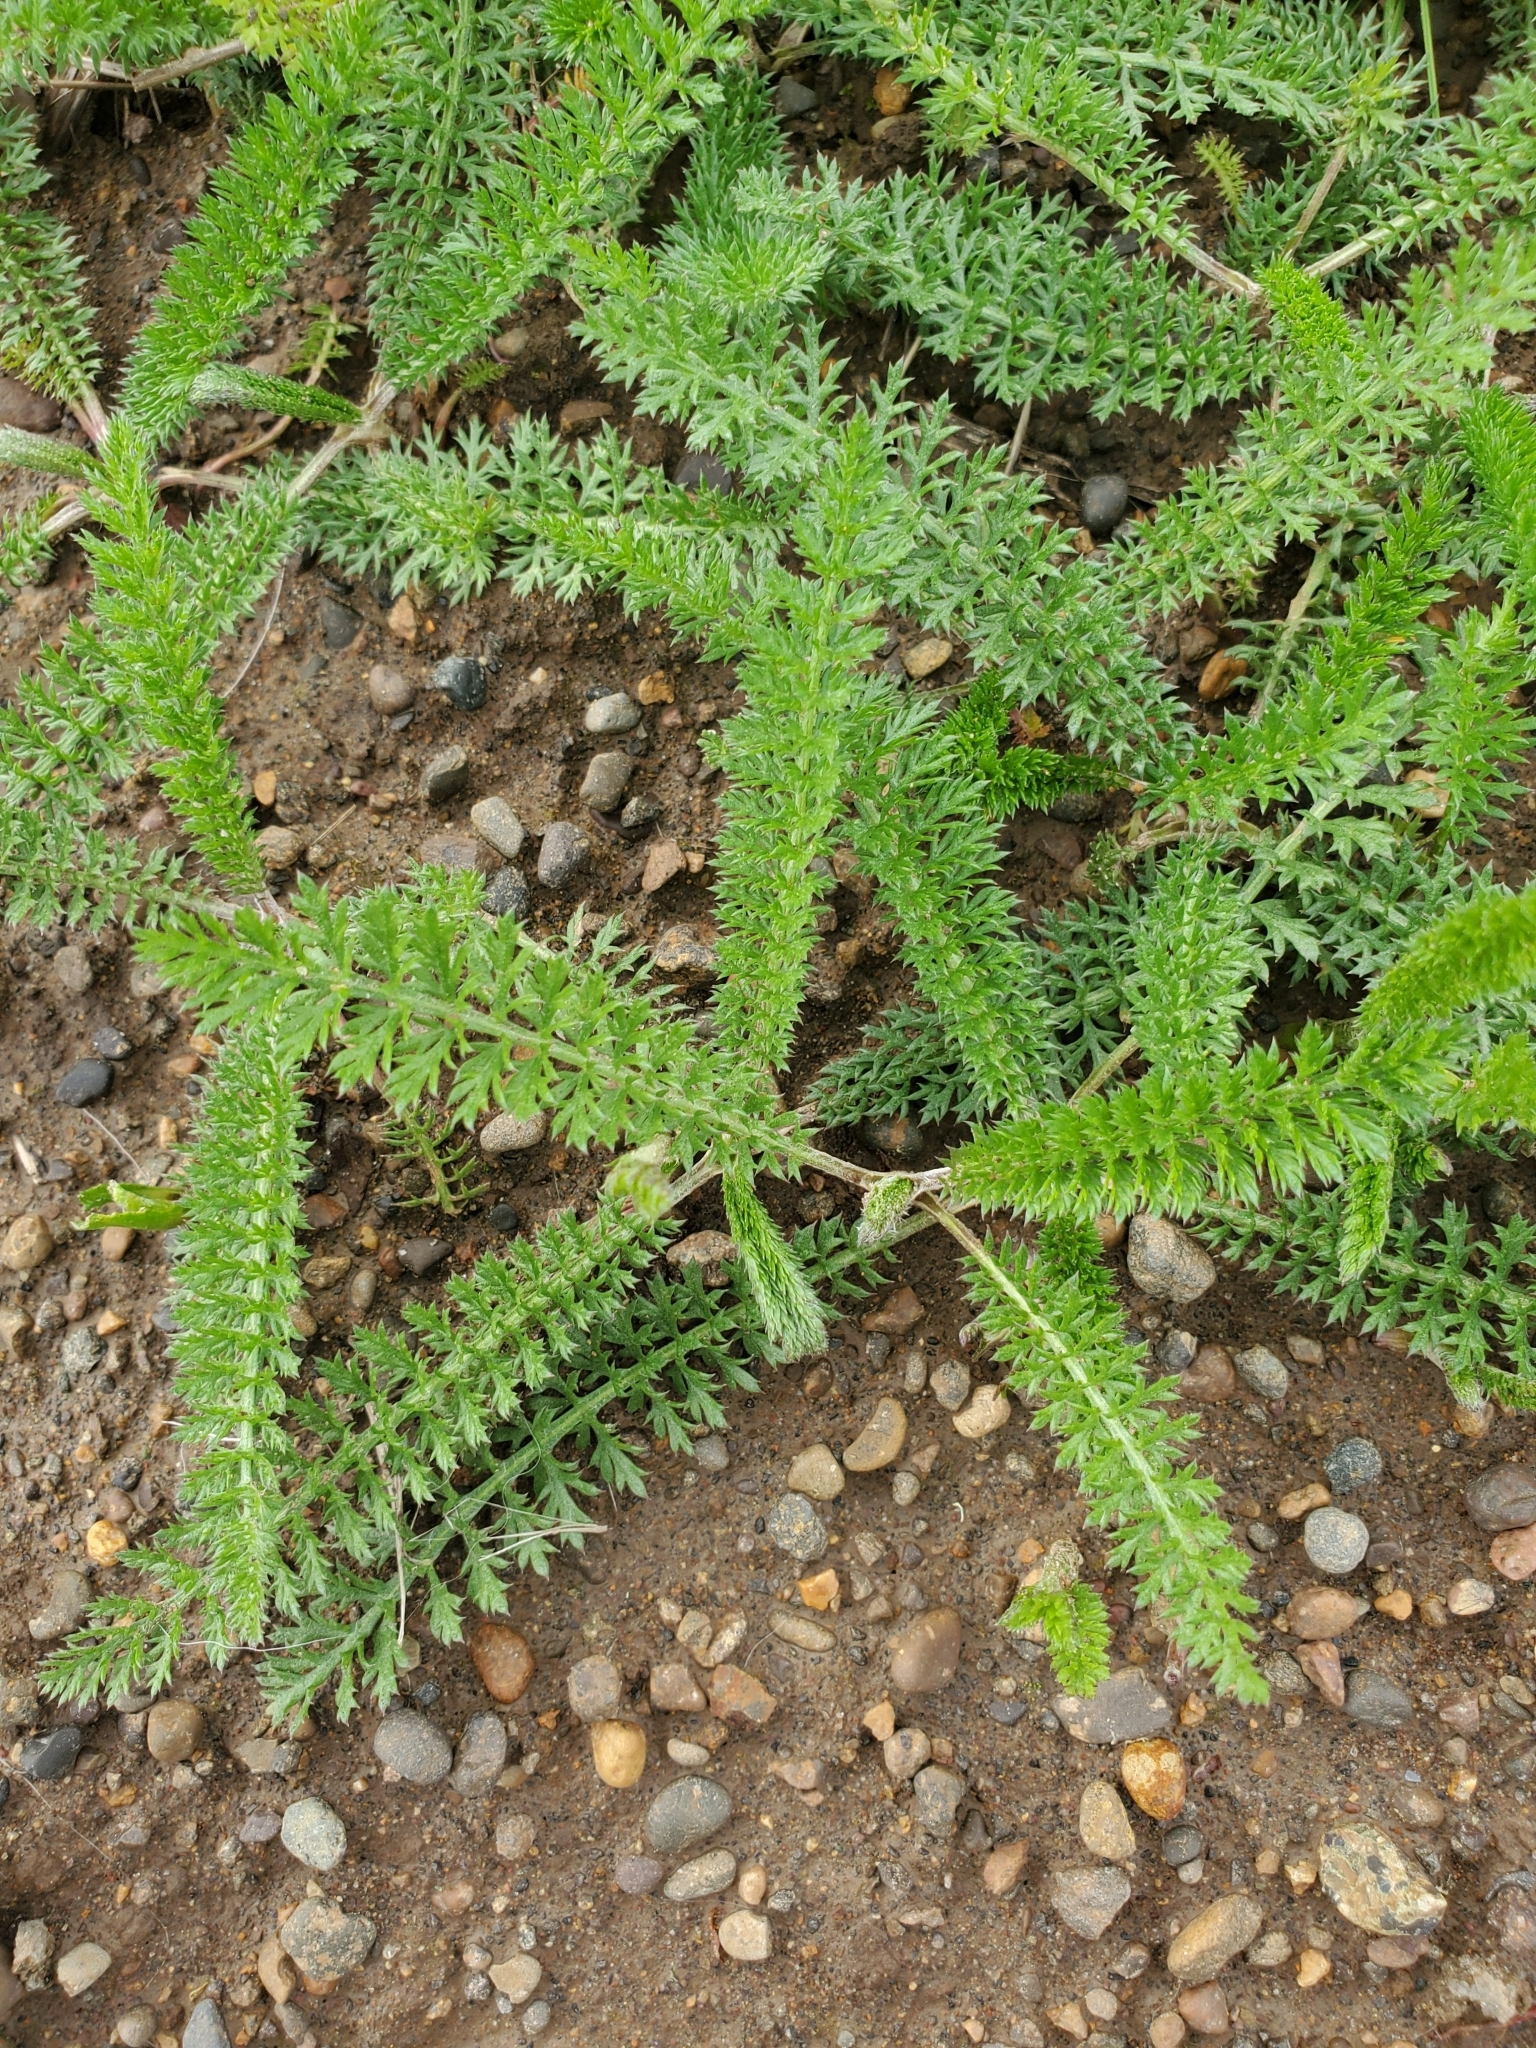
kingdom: Plantae
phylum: Tracheophyta
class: Magnoliopsida
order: Asterales
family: Asteraceae
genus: Achillea
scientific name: Achillea millefolium
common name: Yarrow
